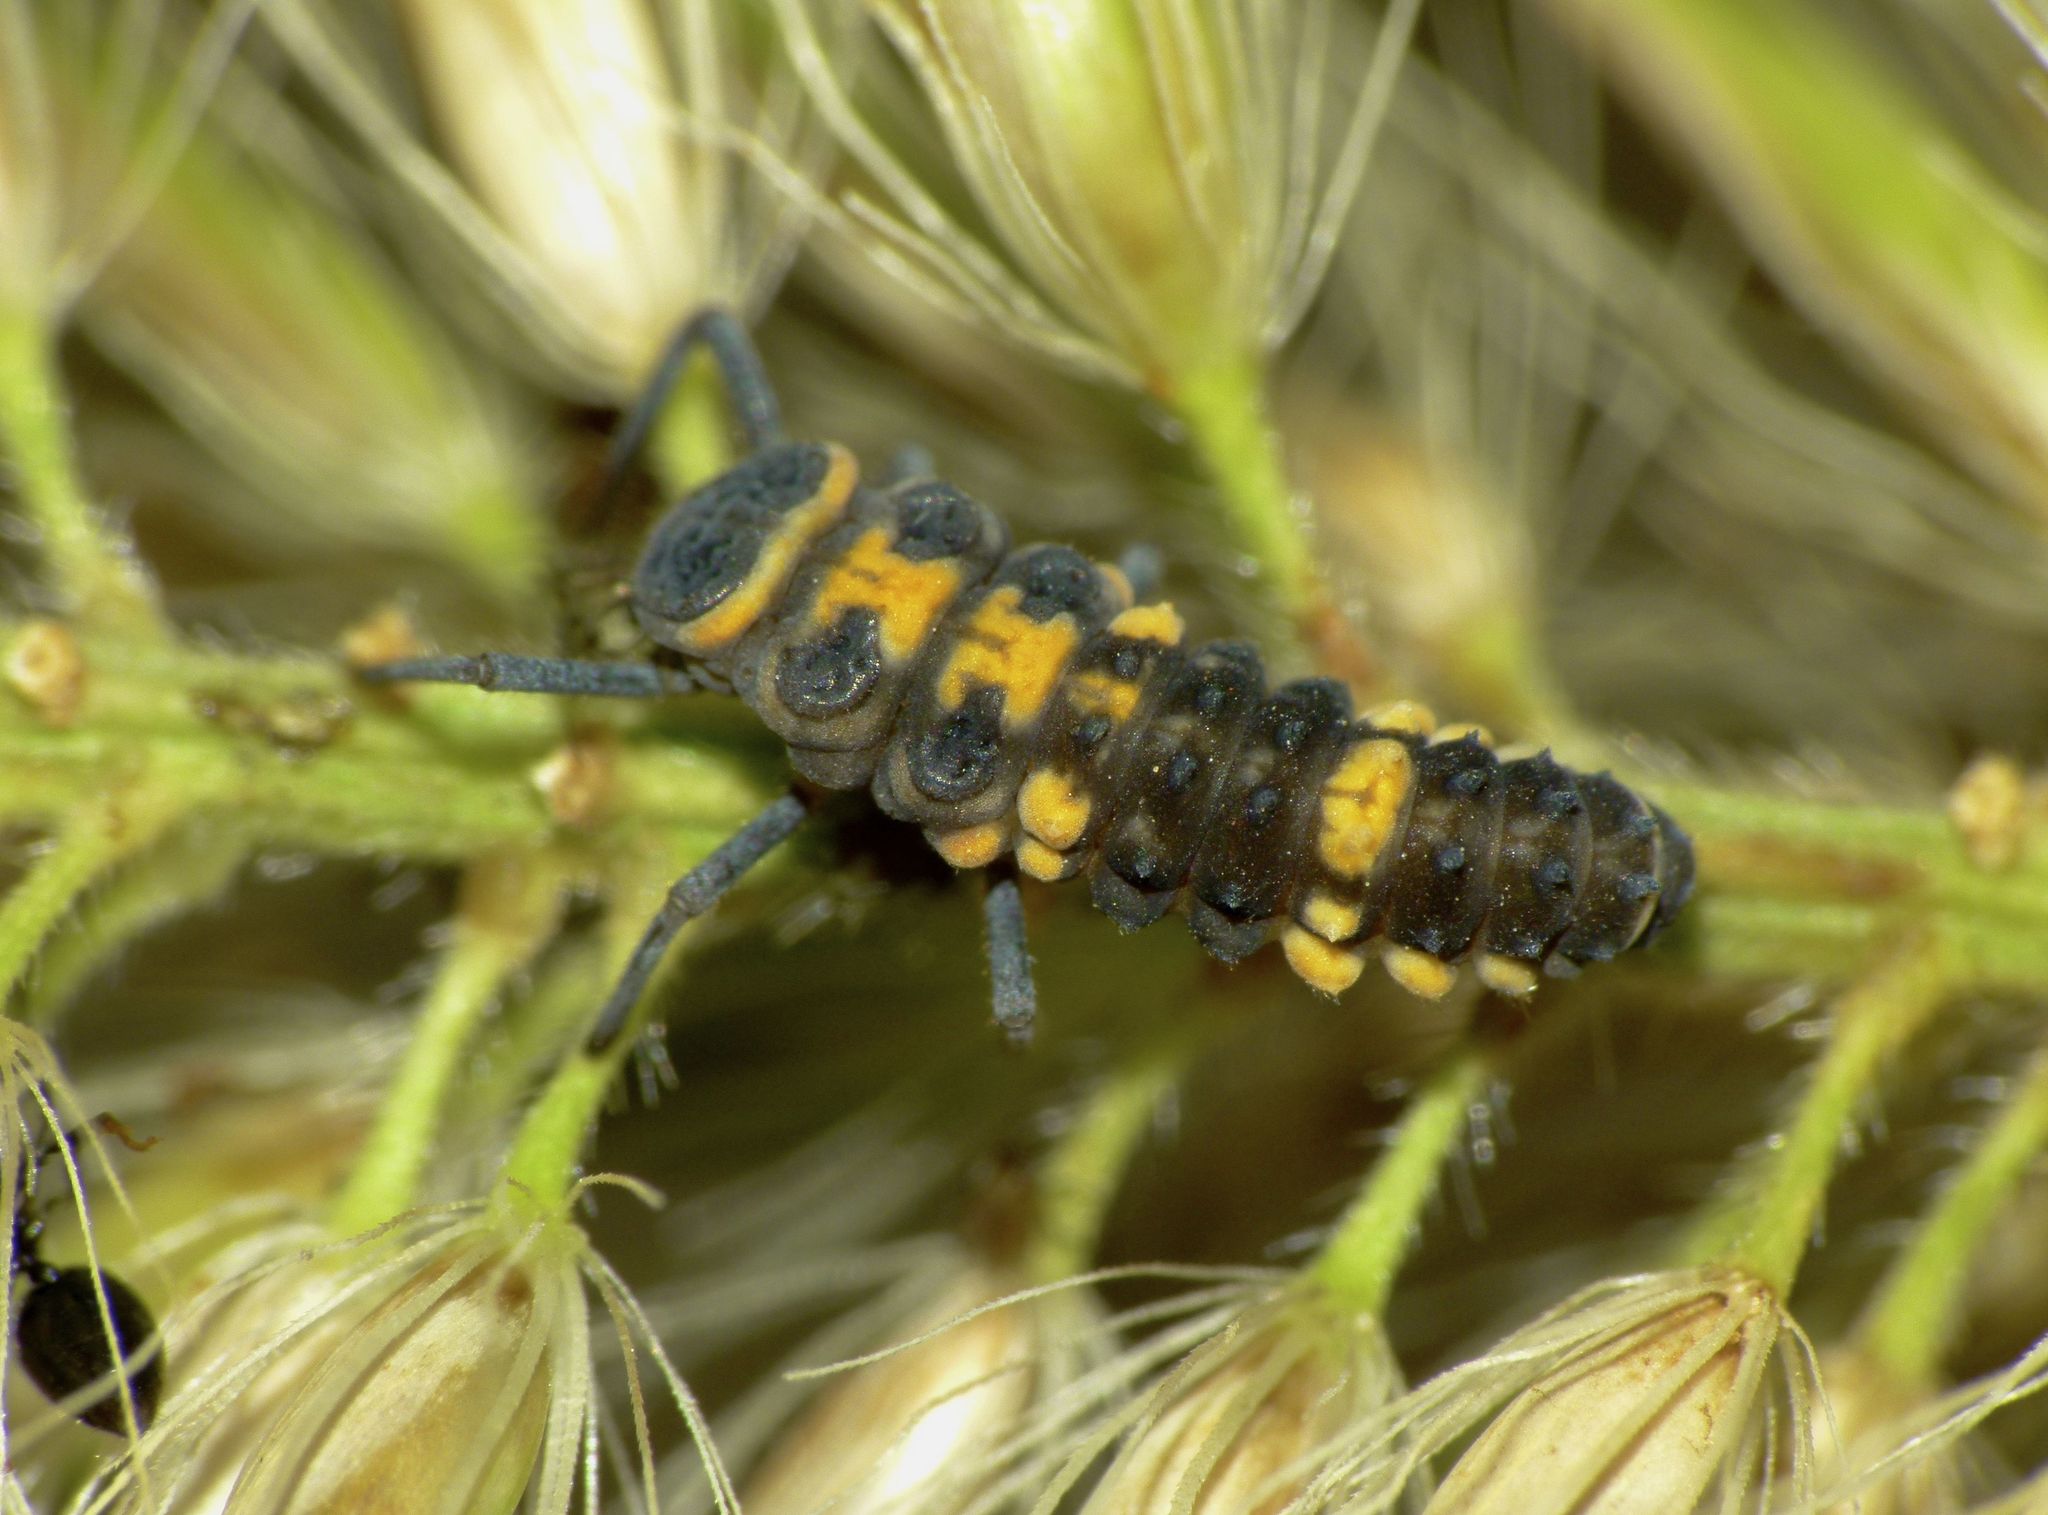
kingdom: Animalia
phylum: Arthropoda
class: Insecta
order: Coleoptera
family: Coccinellidae
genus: Coelophora
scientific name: Coelophora inaequalis
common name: Common australian lady beetle
